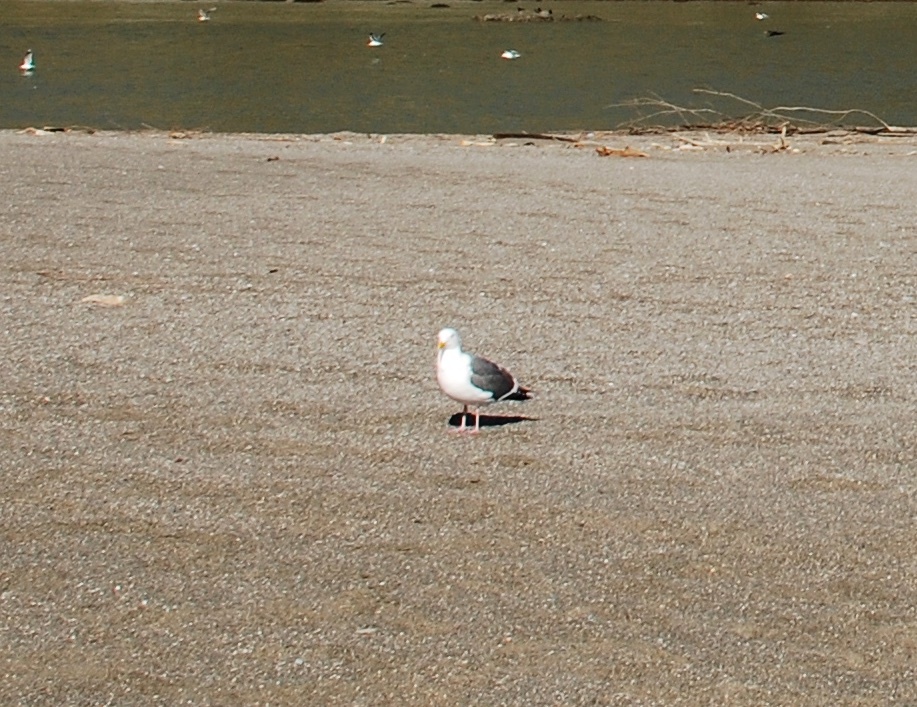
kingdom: Animalia
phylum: Chordata
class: Aves
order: Charadriiformes
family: Laridae
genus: Larus
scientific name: Larus occidentalis
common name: Western gull
